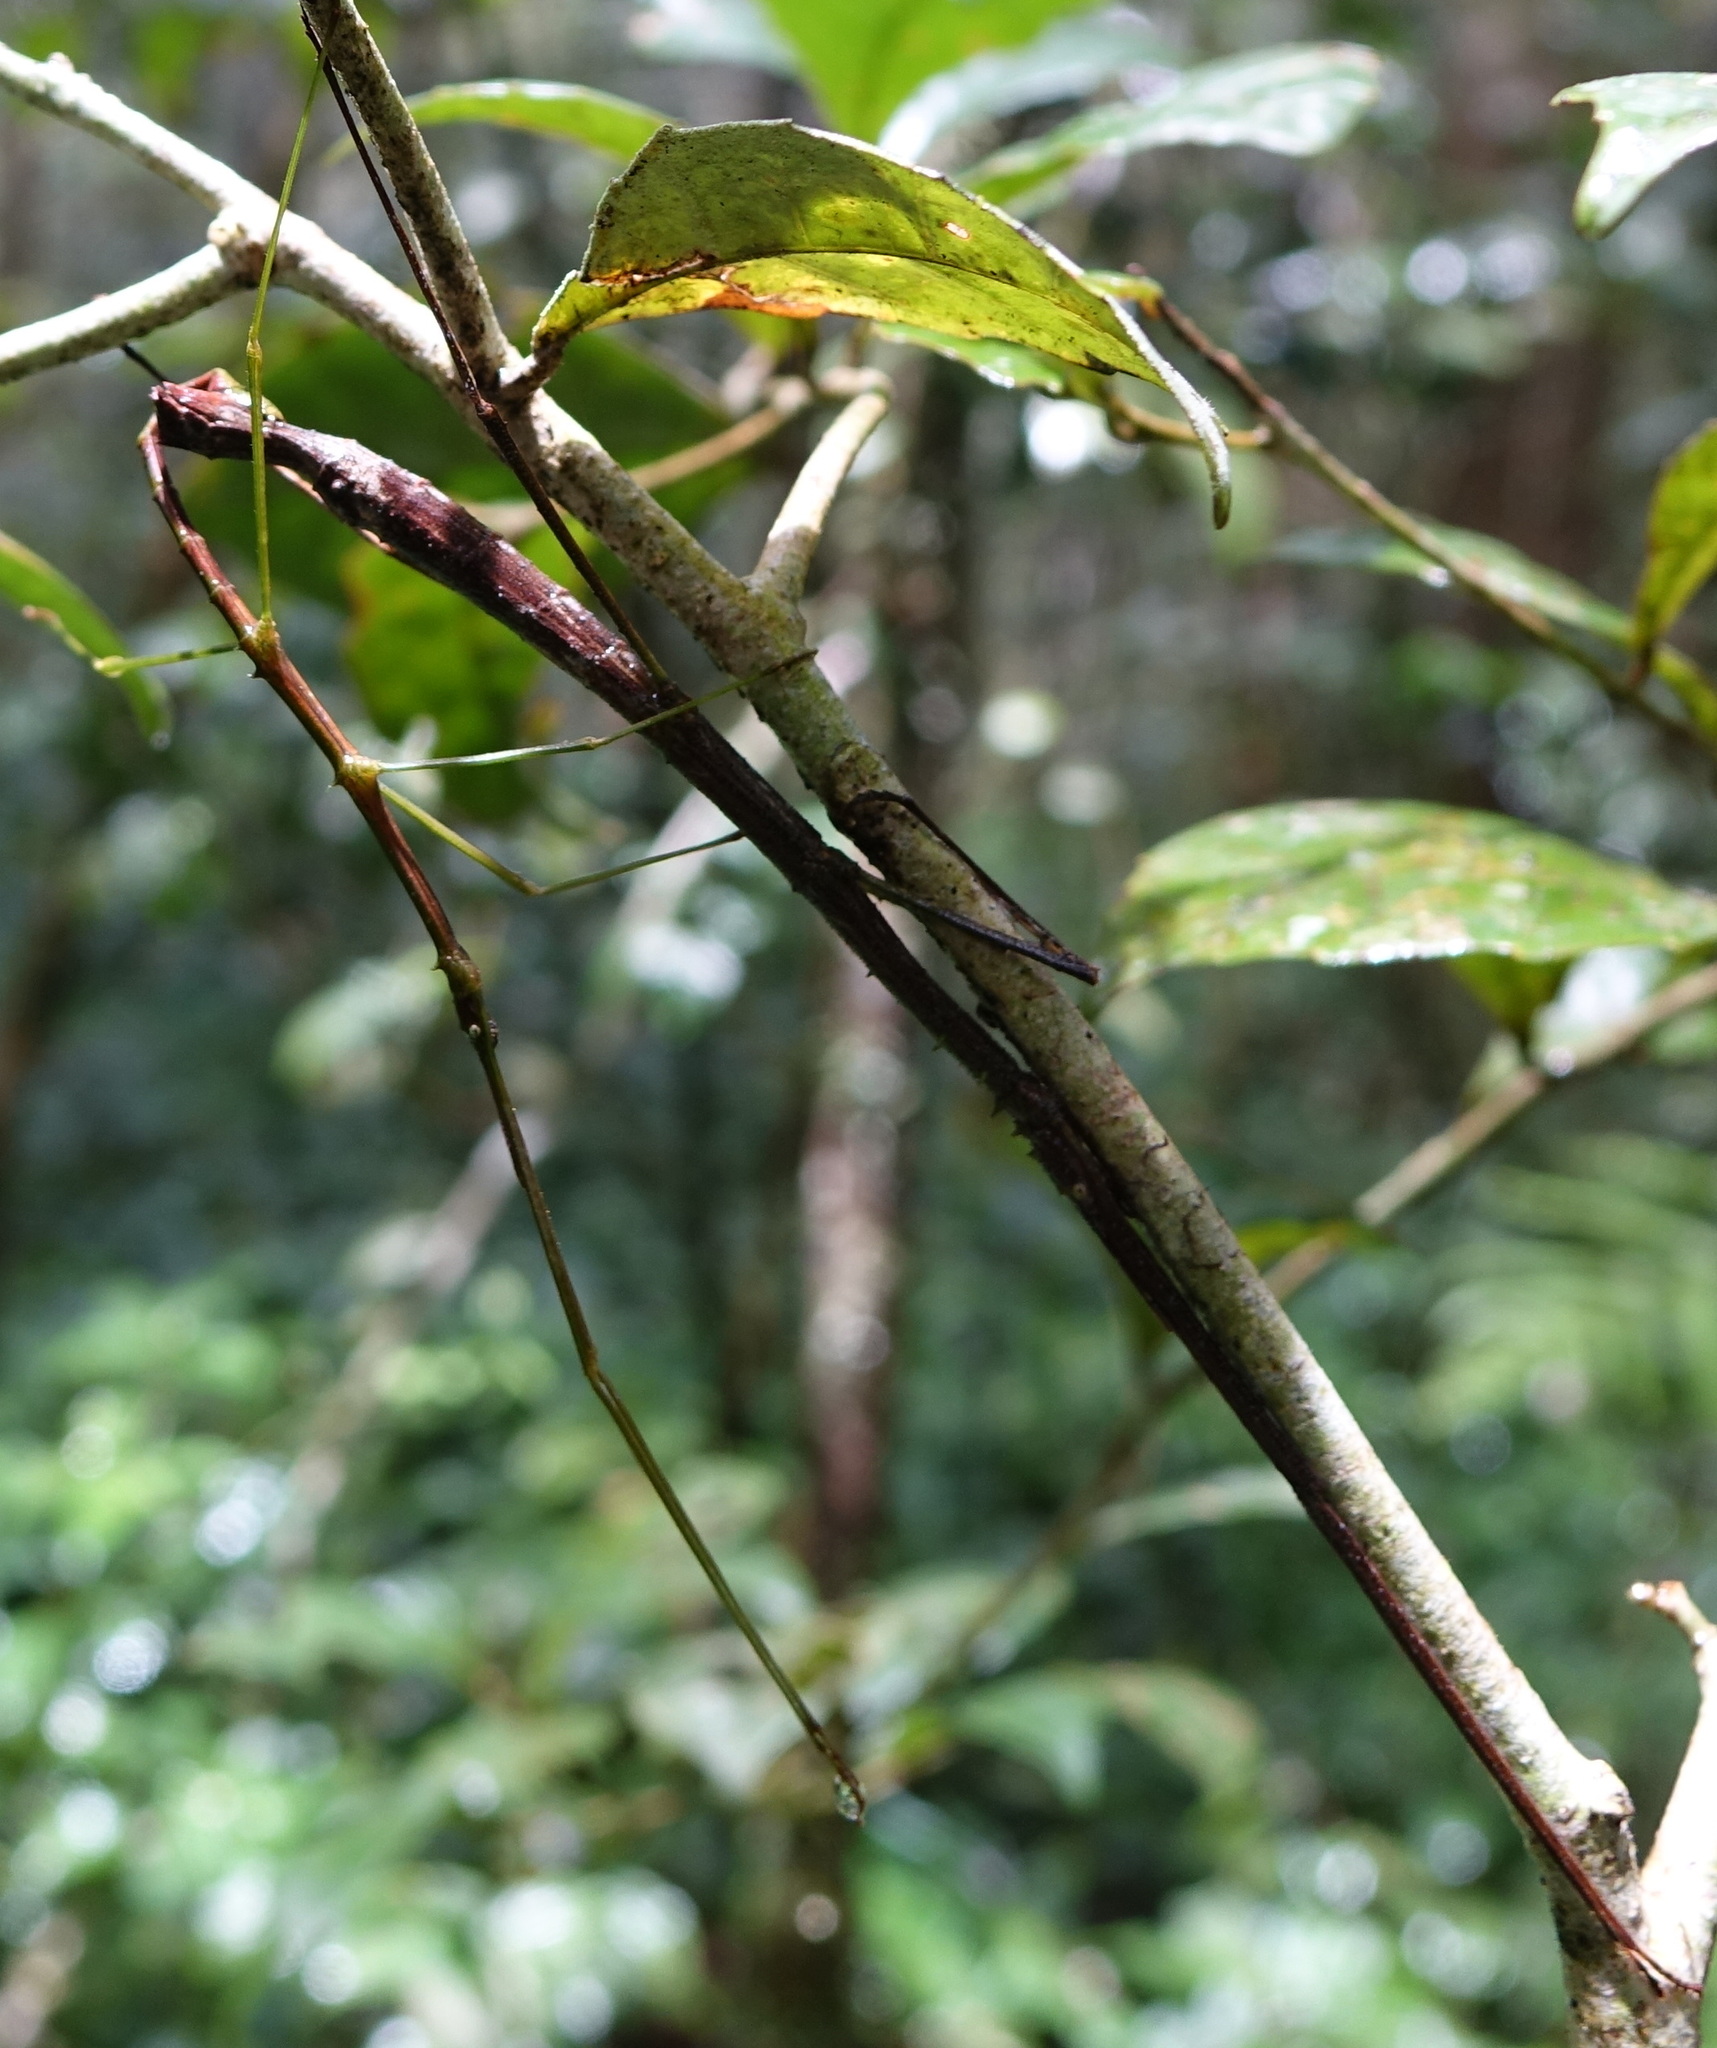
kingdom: Animalia
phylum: Arthropoda
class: Insecta
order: Phasmida
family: Bacillidae
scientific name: Bacillidae
